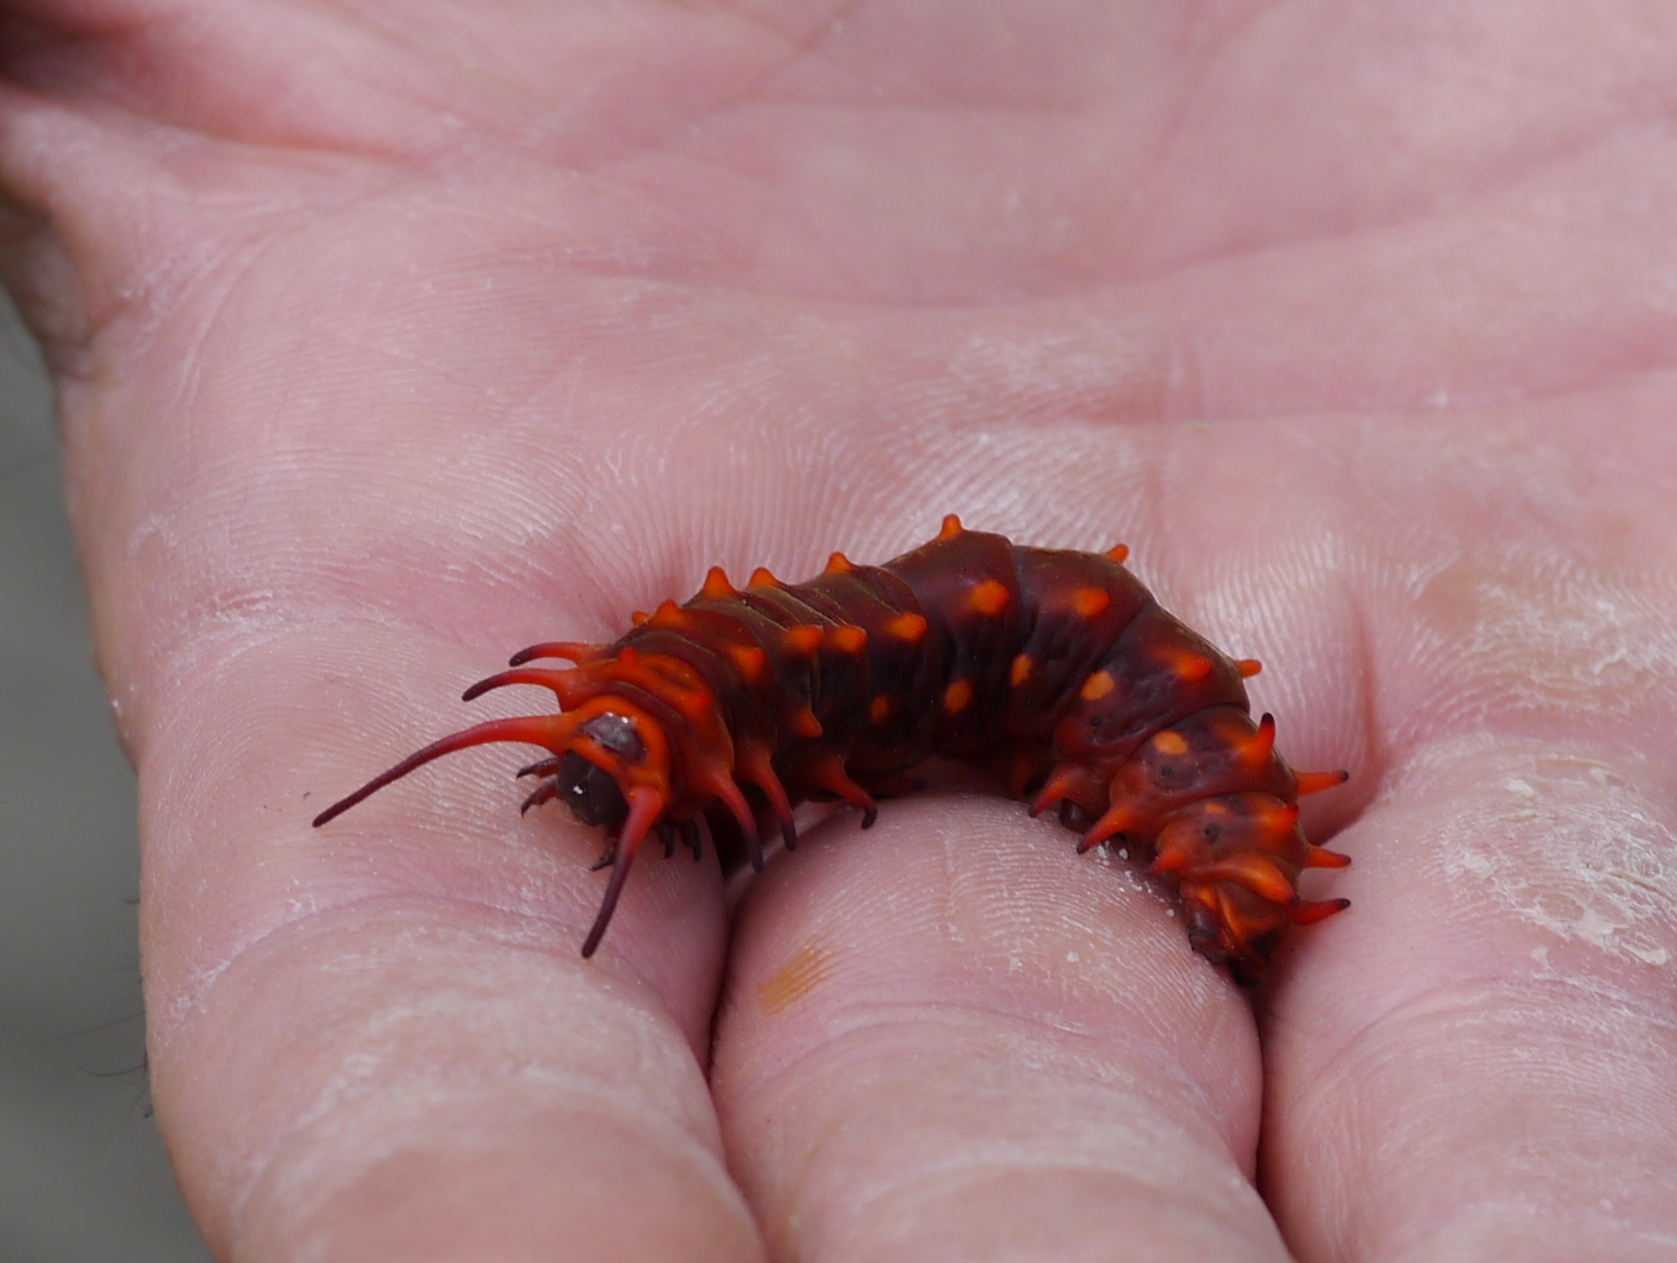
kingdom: Animalia
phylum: Arthropoda
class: Insecta
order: Lepidoptera
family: Papilionidae
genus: Battus
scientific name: Battus philenor
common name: Pipevine swallowtail
